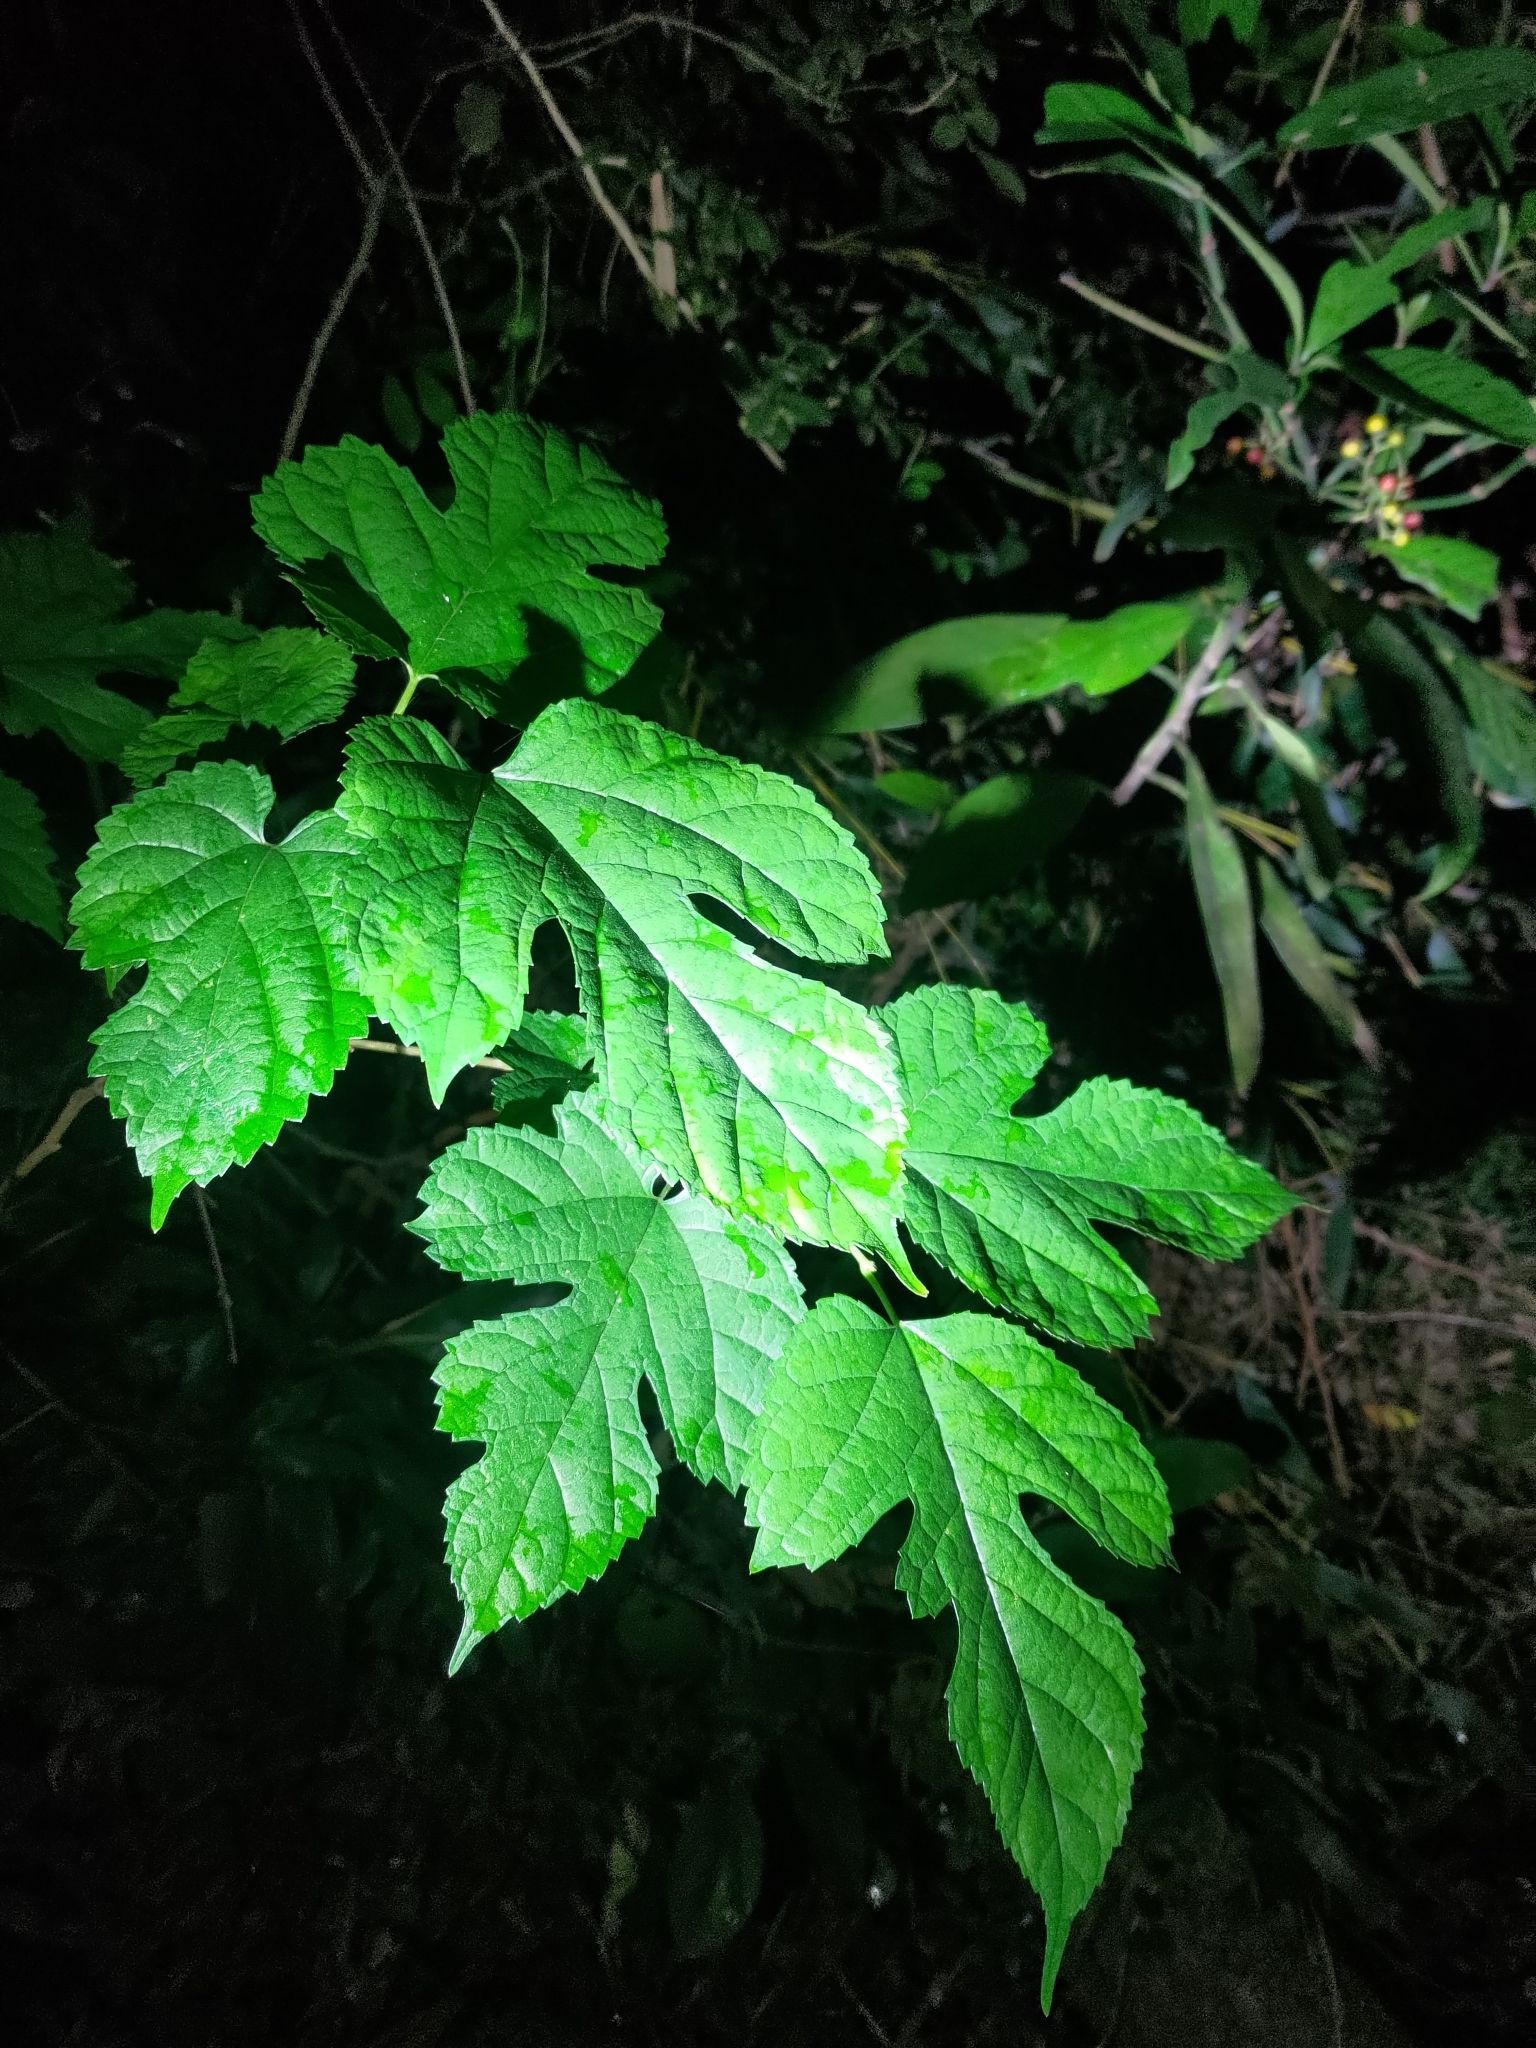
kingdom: Plantae
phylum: Tracheophyta
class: Magnoliopsida
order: Rosales
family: Moraceae
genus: Morus
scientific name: Morus indica
